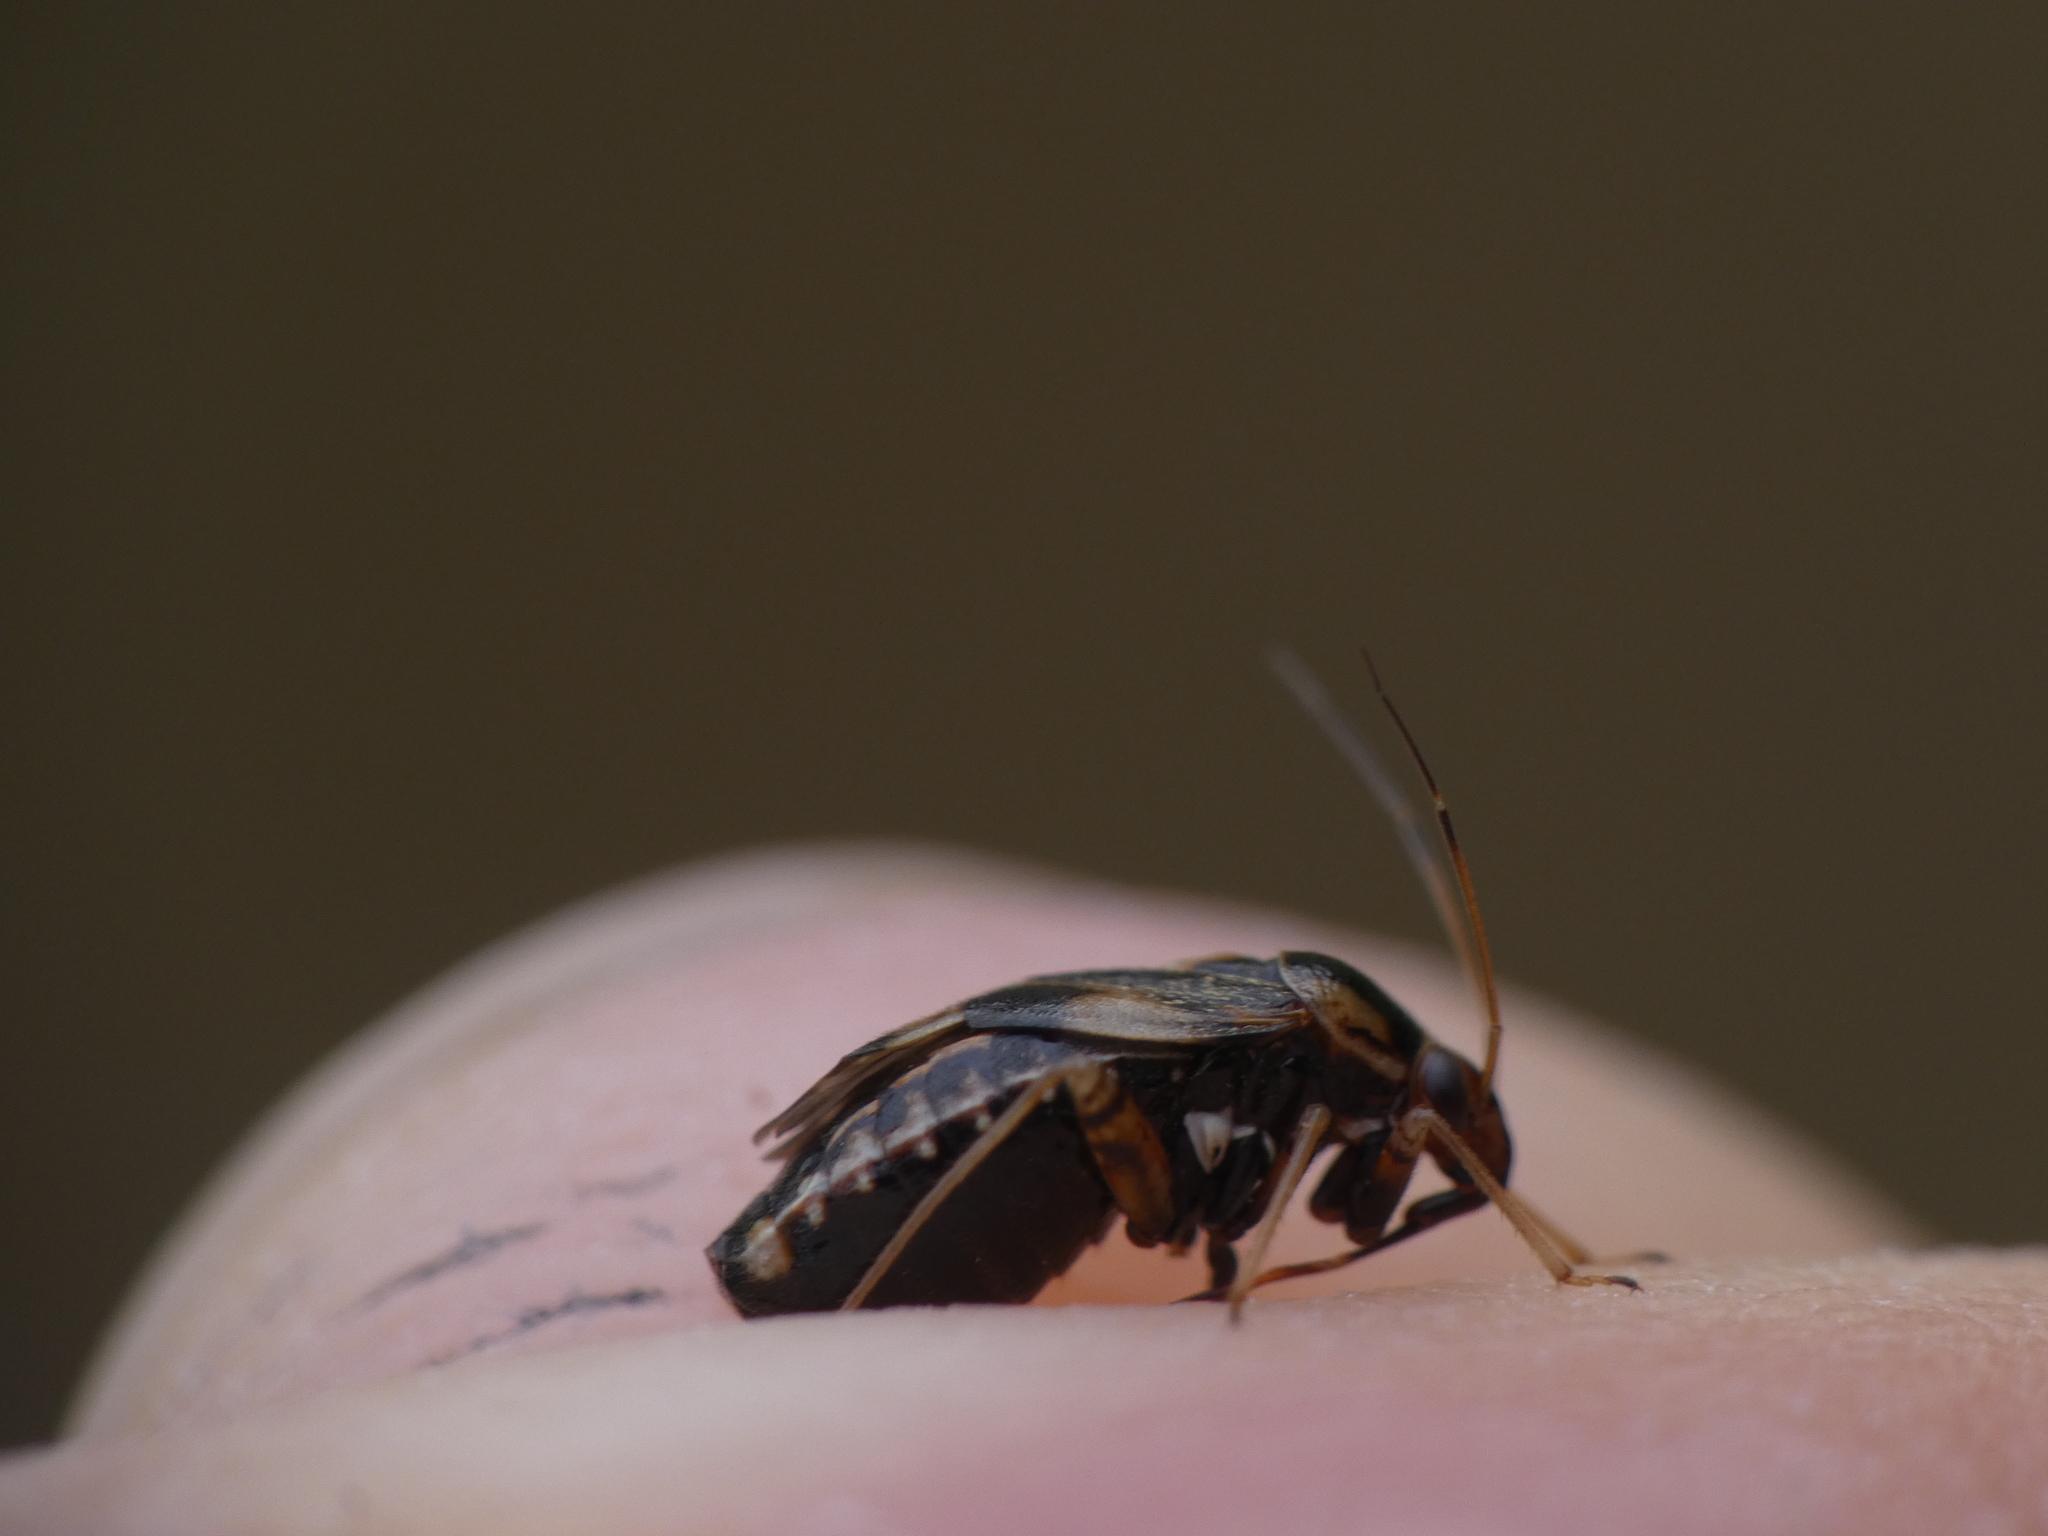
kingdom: Animalia
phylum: Arthropoda
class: Insecta
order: Hemiptera
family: Miridae
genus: Cyphodema
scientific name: Cyphodema instabilis
